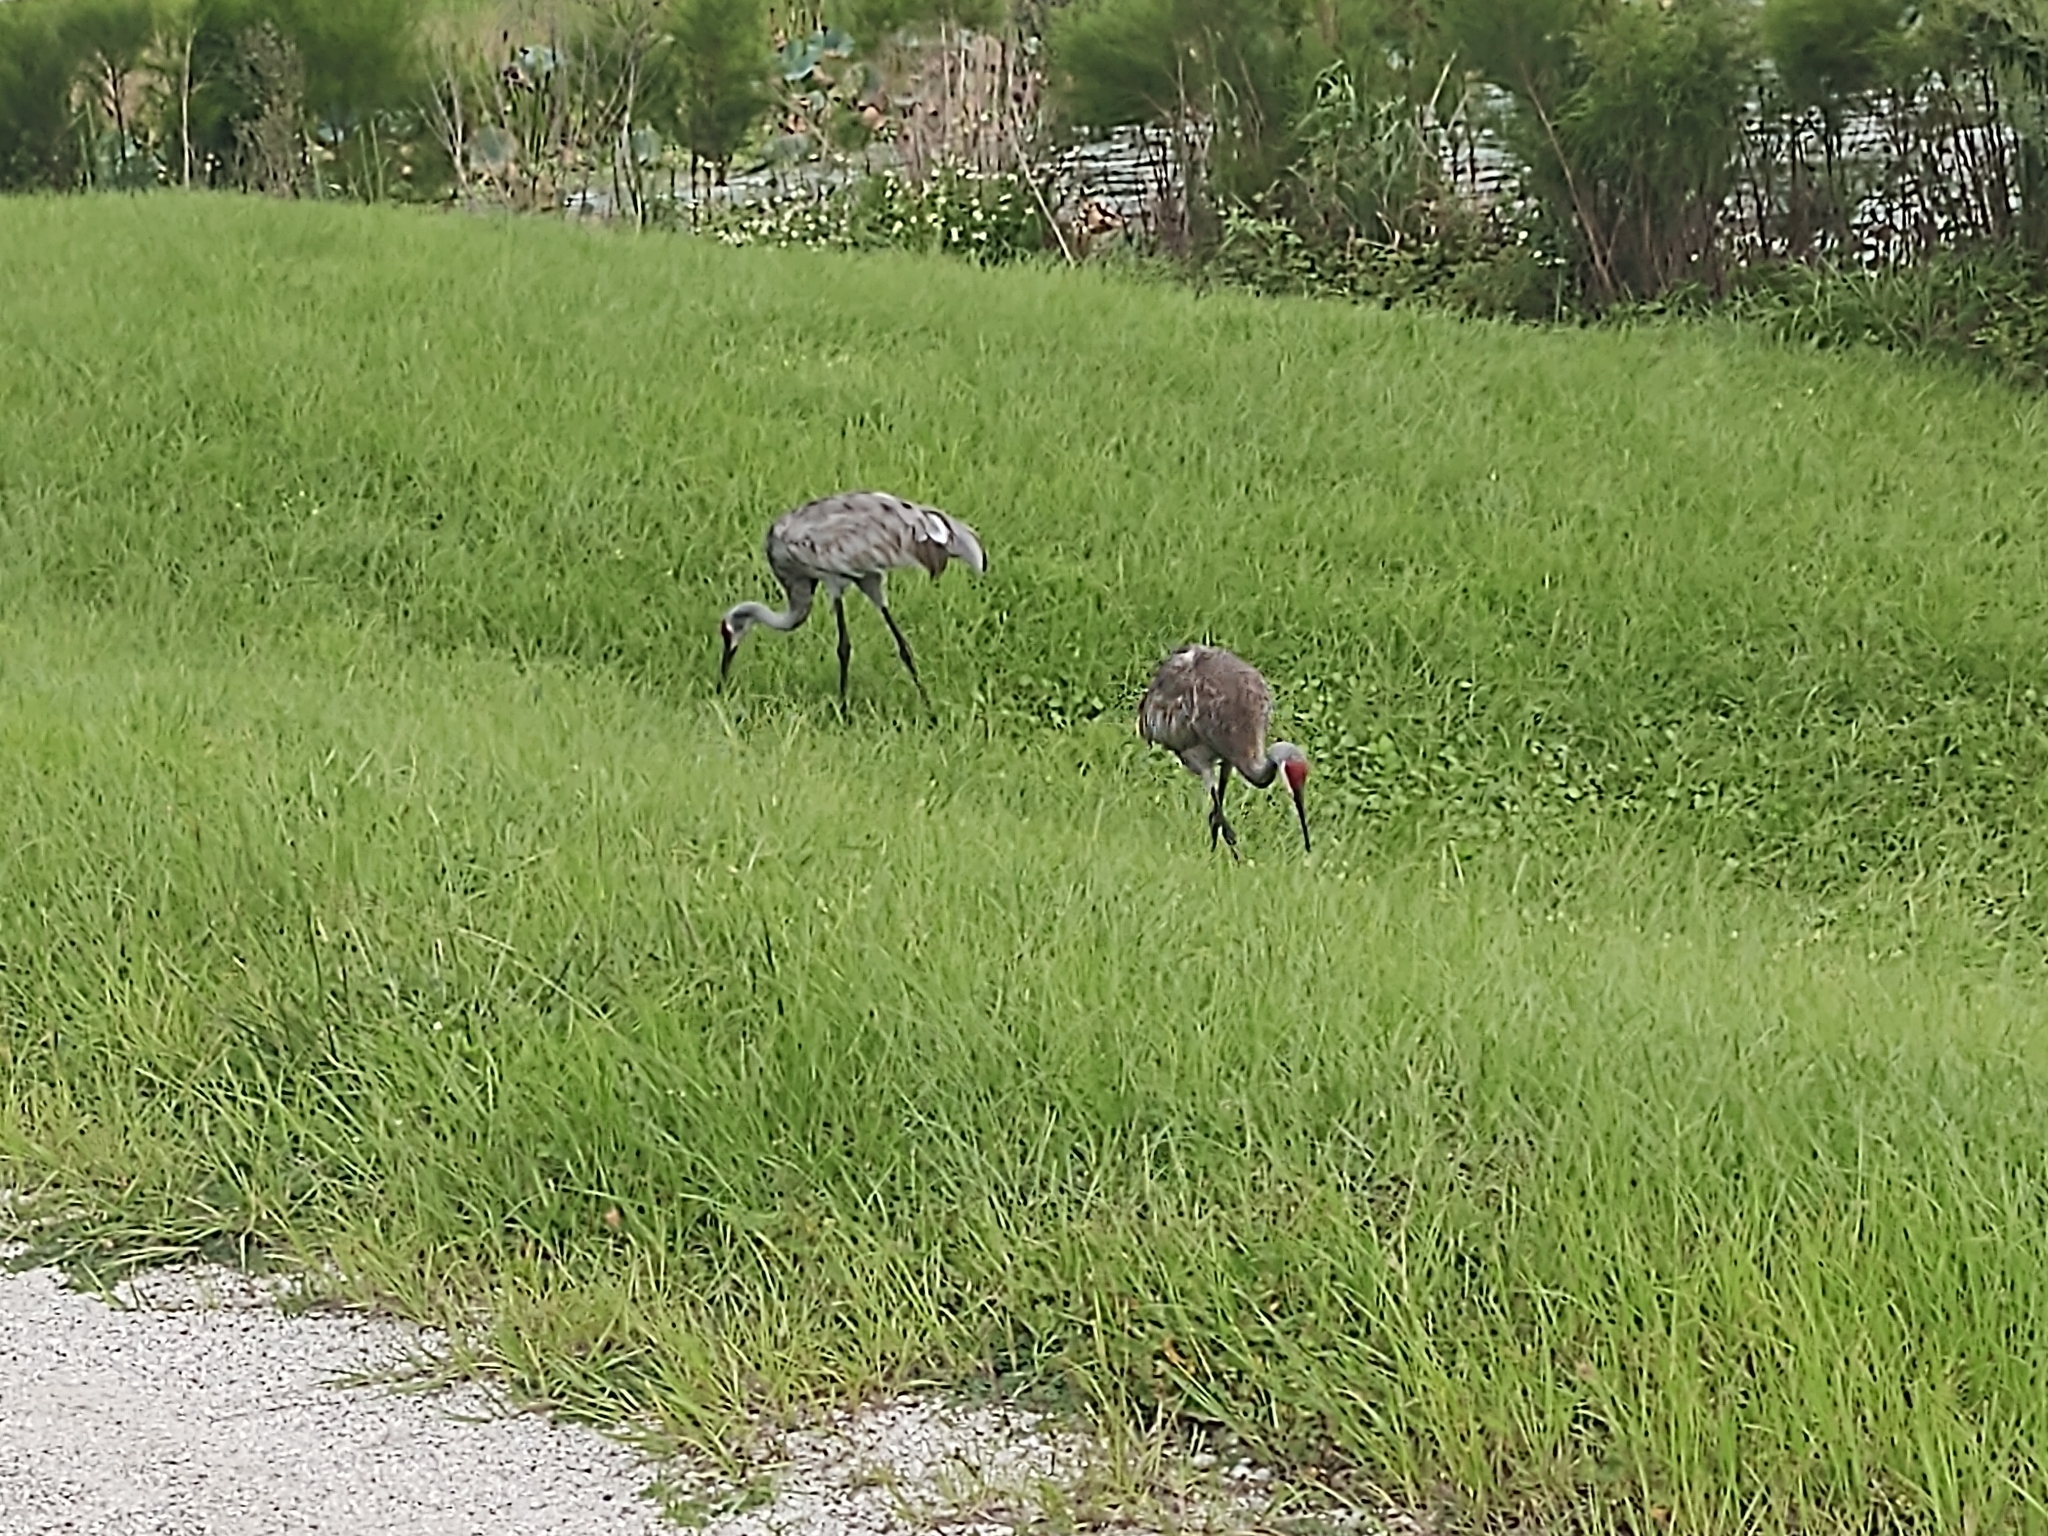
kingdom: Animalia
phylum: Chordata
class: Aves
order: Gruiformes
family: Gruidae
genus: Grus
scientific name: Grus canadensis
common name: Sandhill crane
